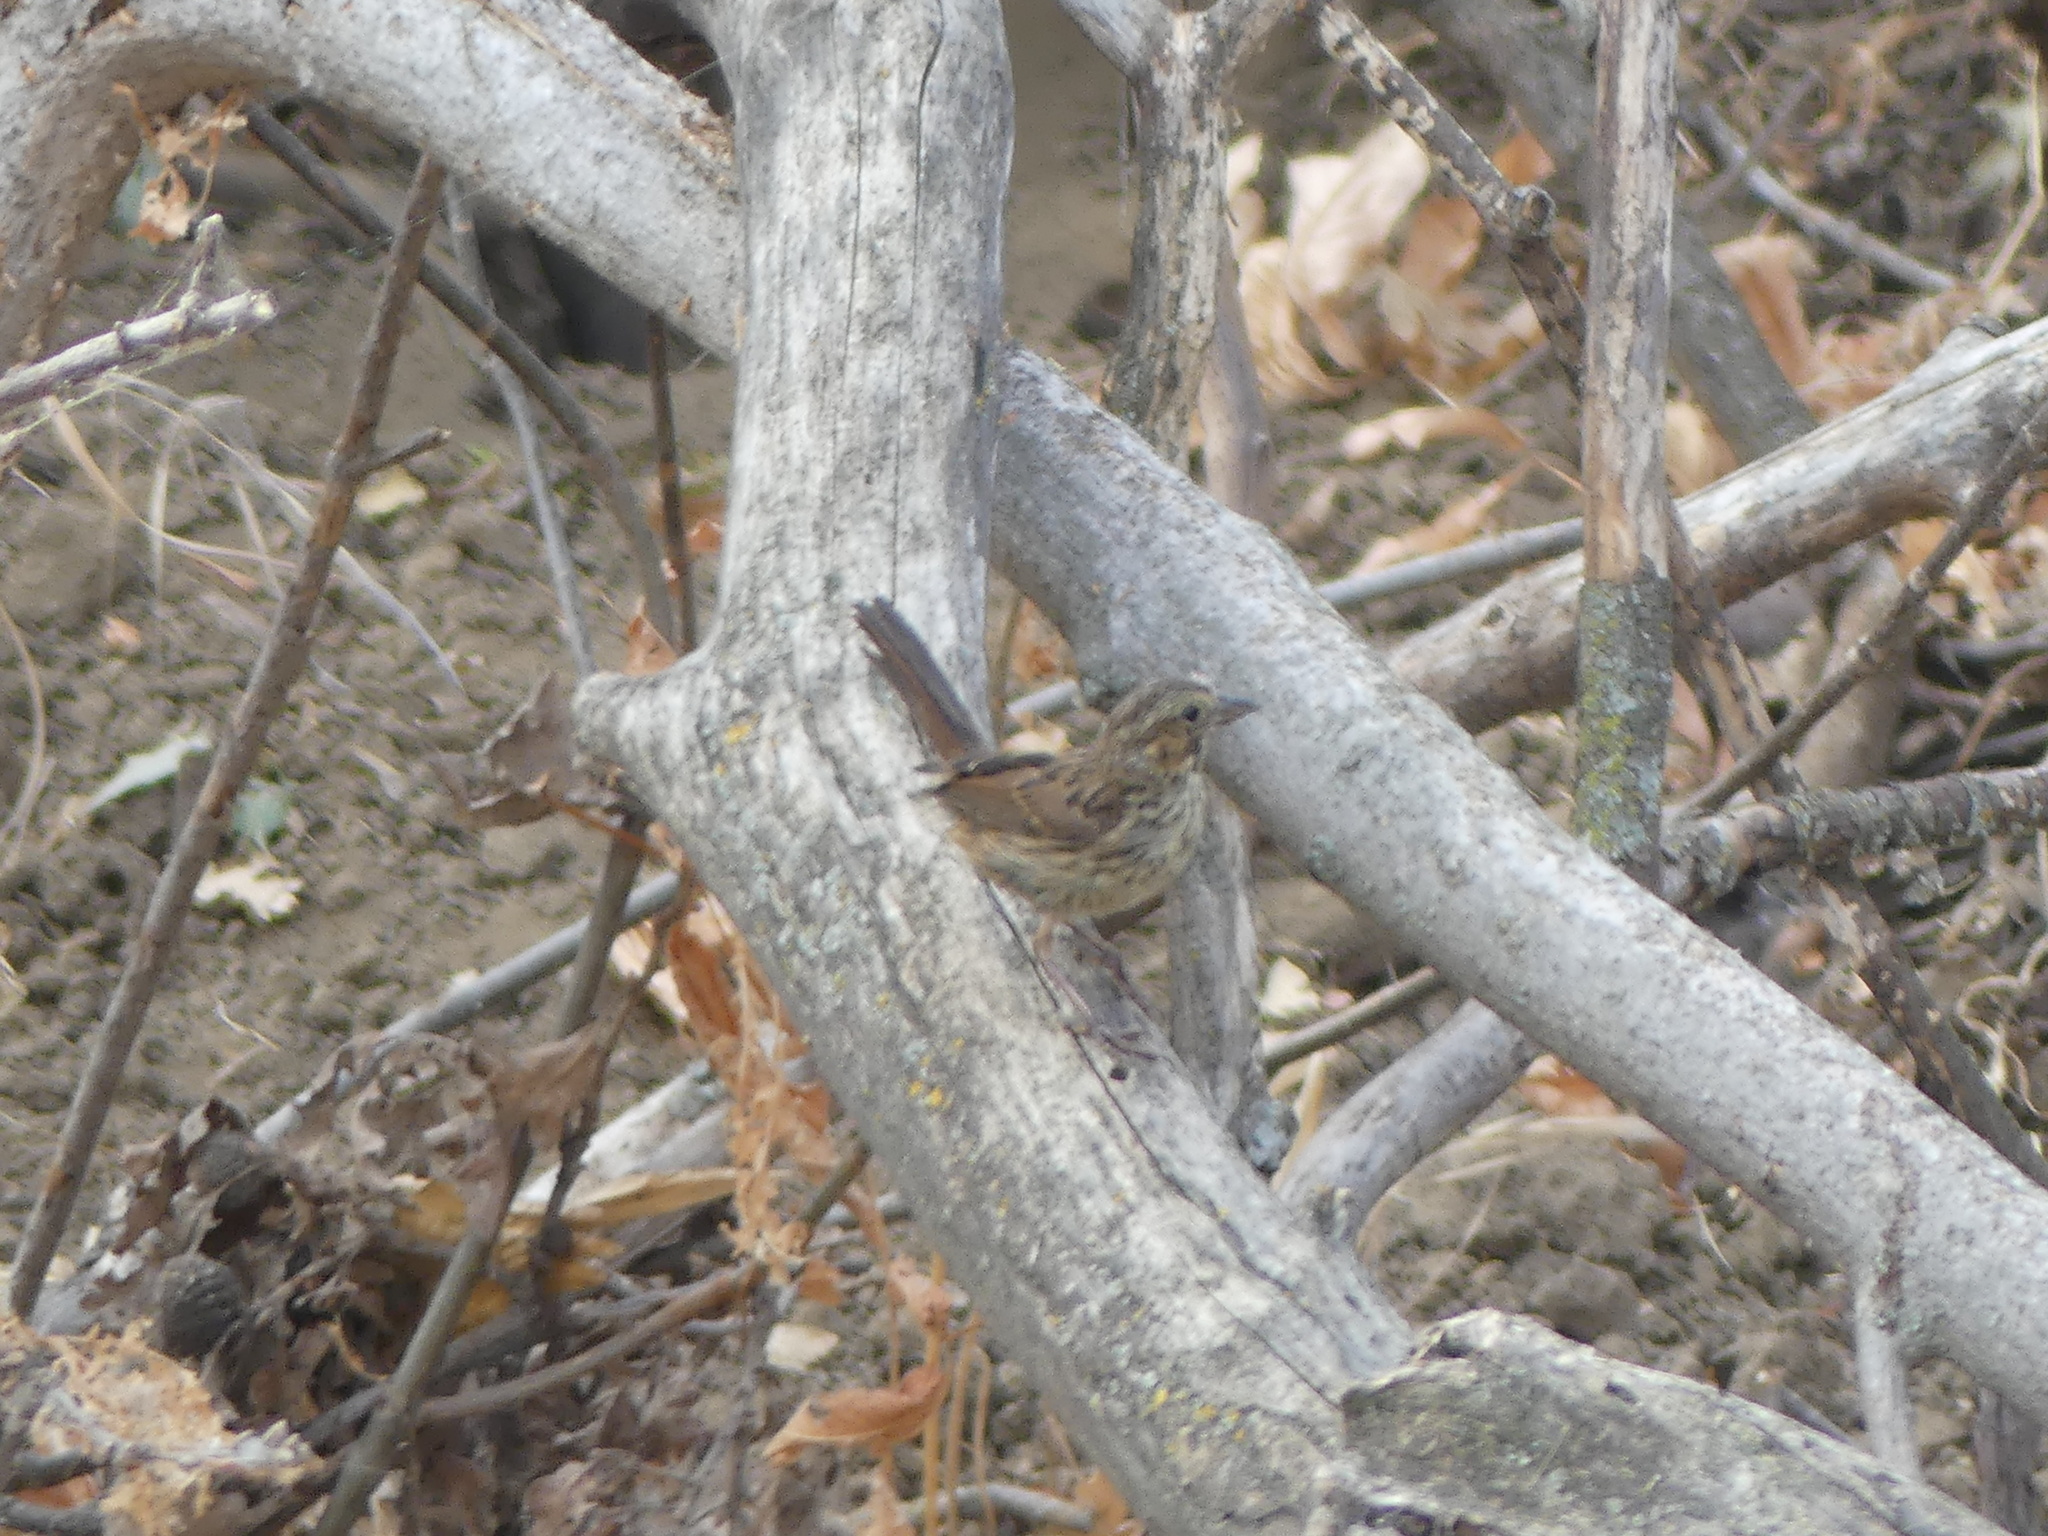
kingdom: Animalia
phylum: Chordata
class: Aves
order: Passeriformes
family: Passerellidae
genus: Melospiza
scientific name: Melospiza melodia
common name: Song sparrow
